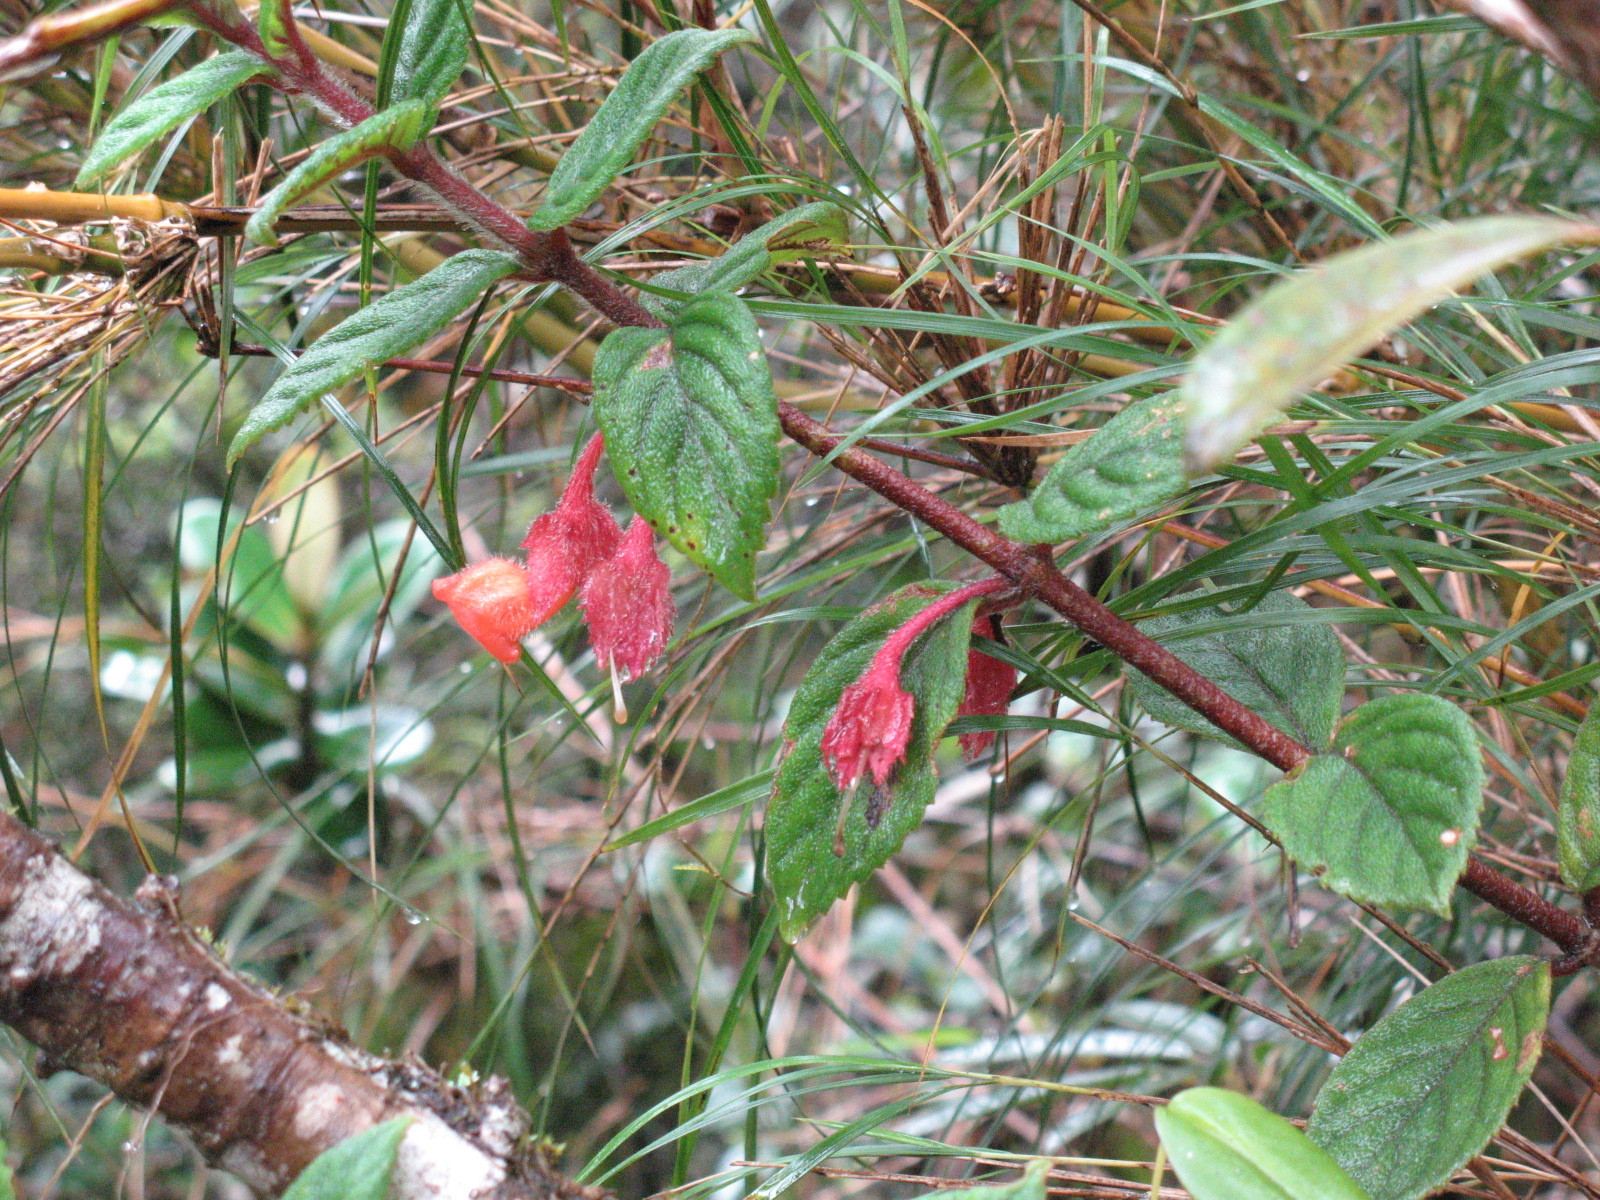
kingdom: Plantae
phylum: Tracheophyta
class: Magnoliopsida
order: Lamiales
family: Gesneriaceae
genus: Glossoloma
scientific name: Glossoloma altescandens
